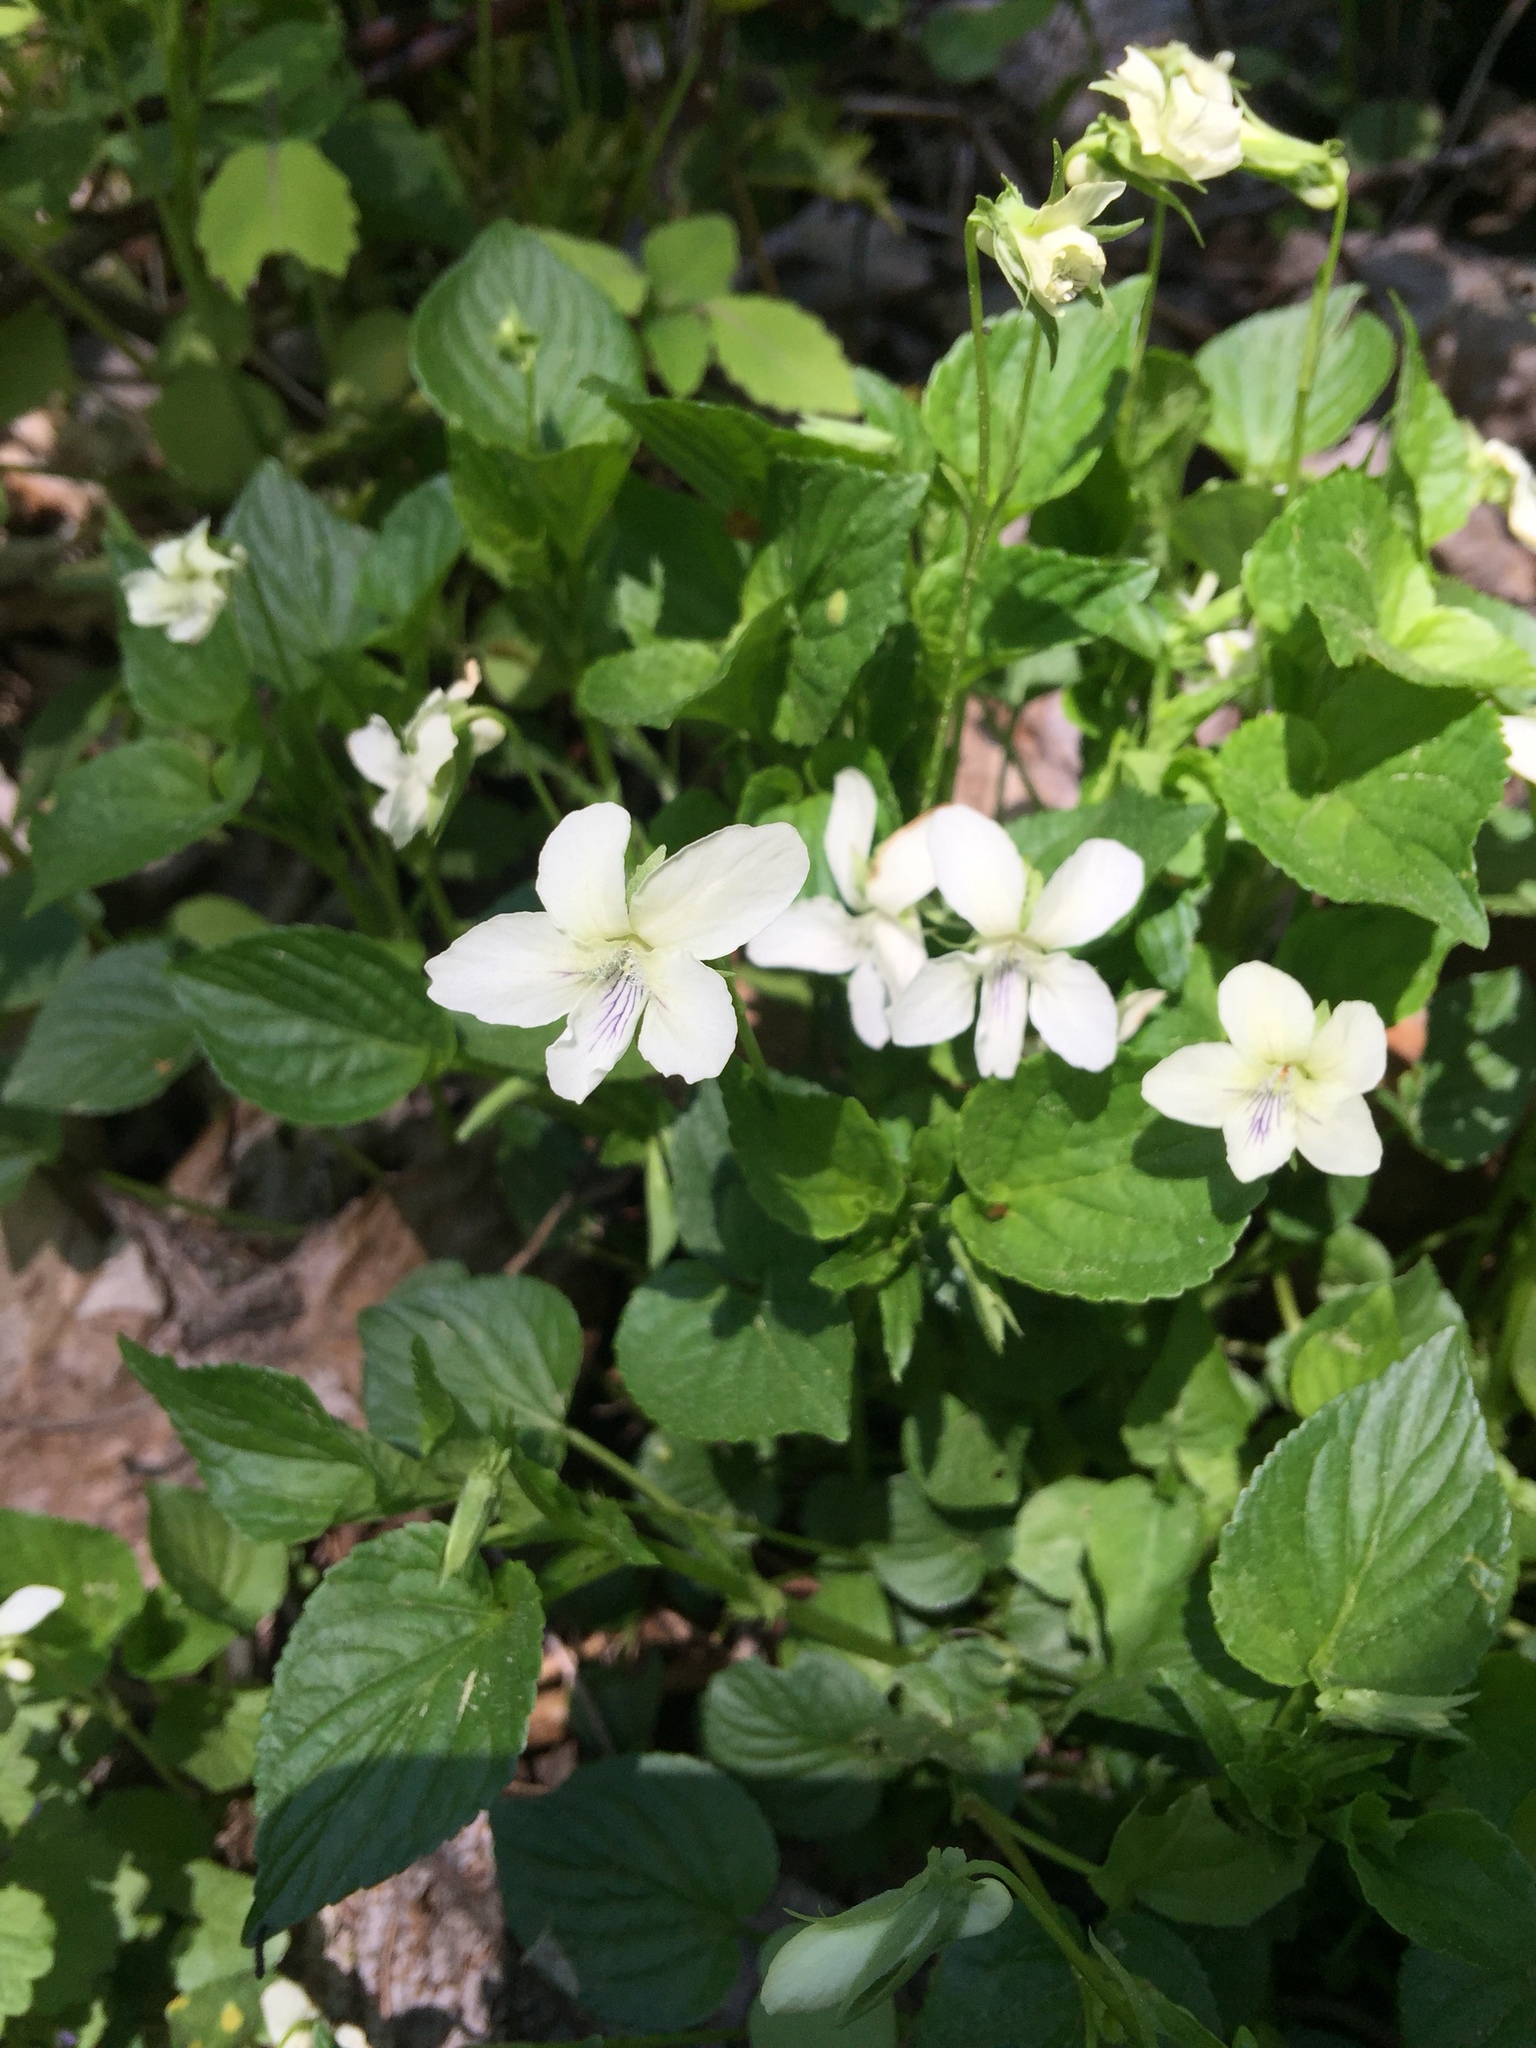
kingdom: Plantae
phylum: Tracheophyta
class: Magnoliopsida
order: Malpighiales
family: Violaceae
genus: Viola
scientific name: Viola striata
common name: Cream violet
